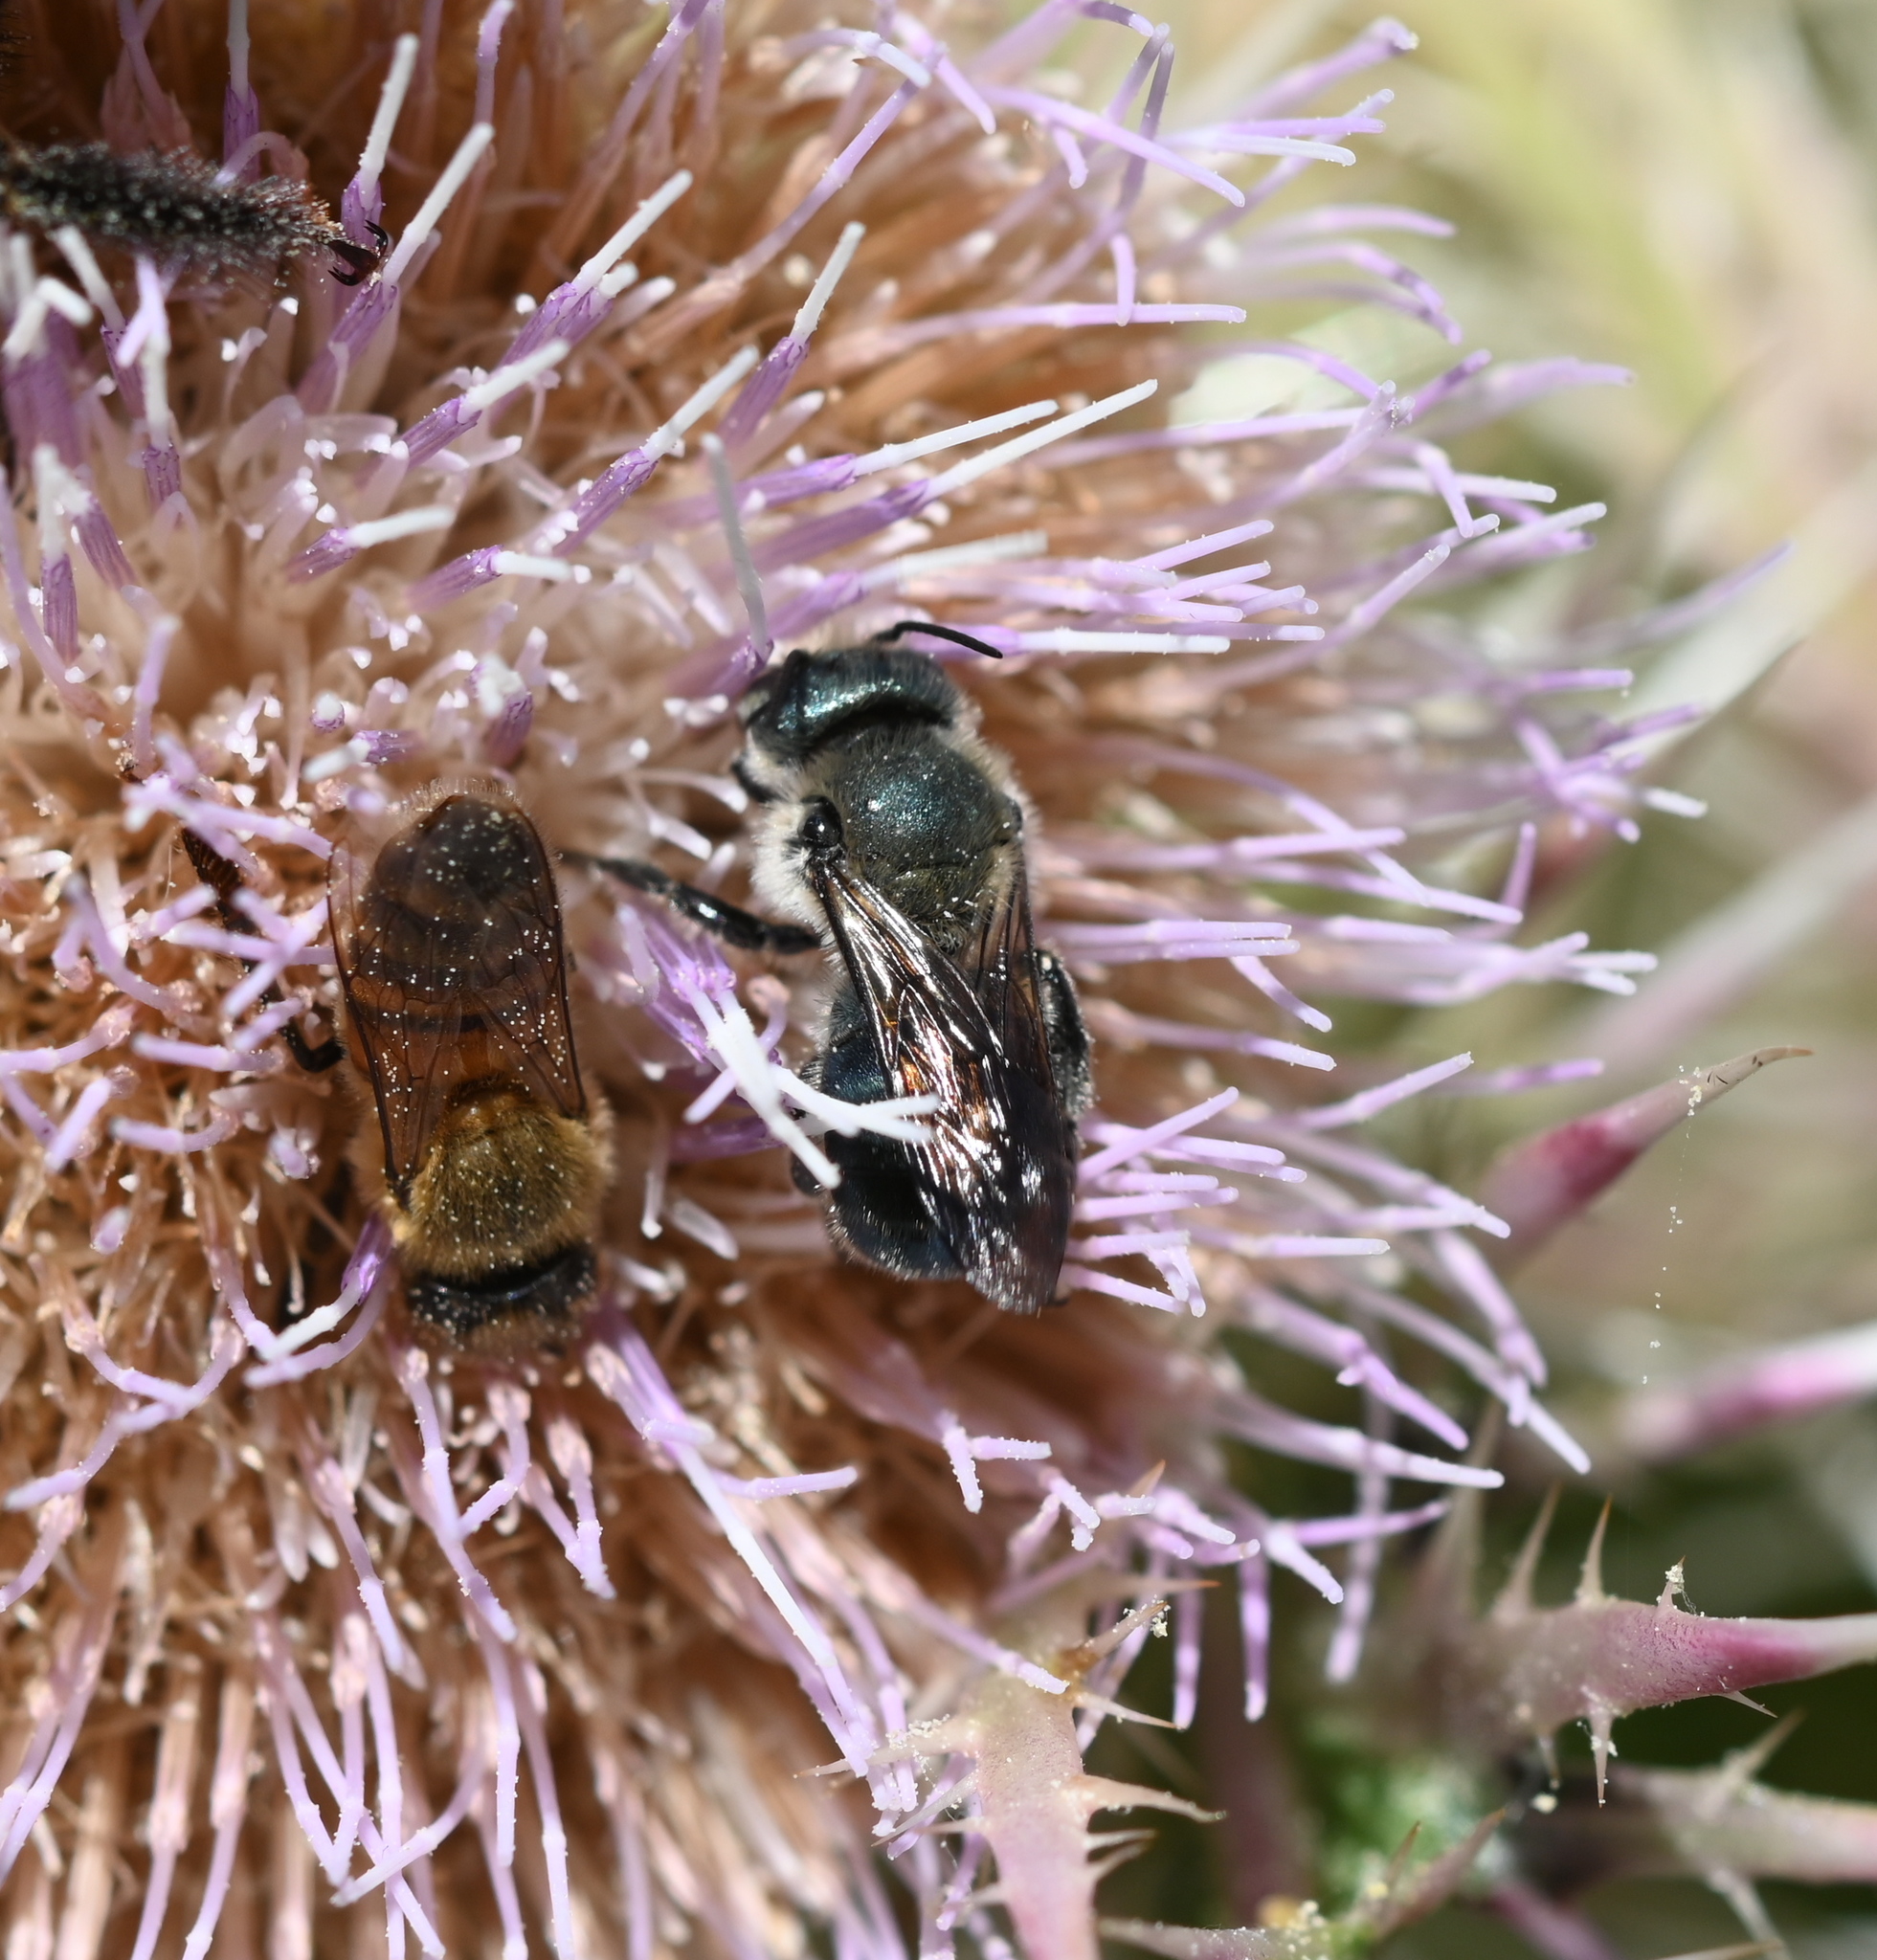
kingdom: Animalia
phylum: Arthropoda
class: Insecta
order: Hymenoptera
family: Megachilidae
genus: Osmia
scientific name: Osmia chalybea
